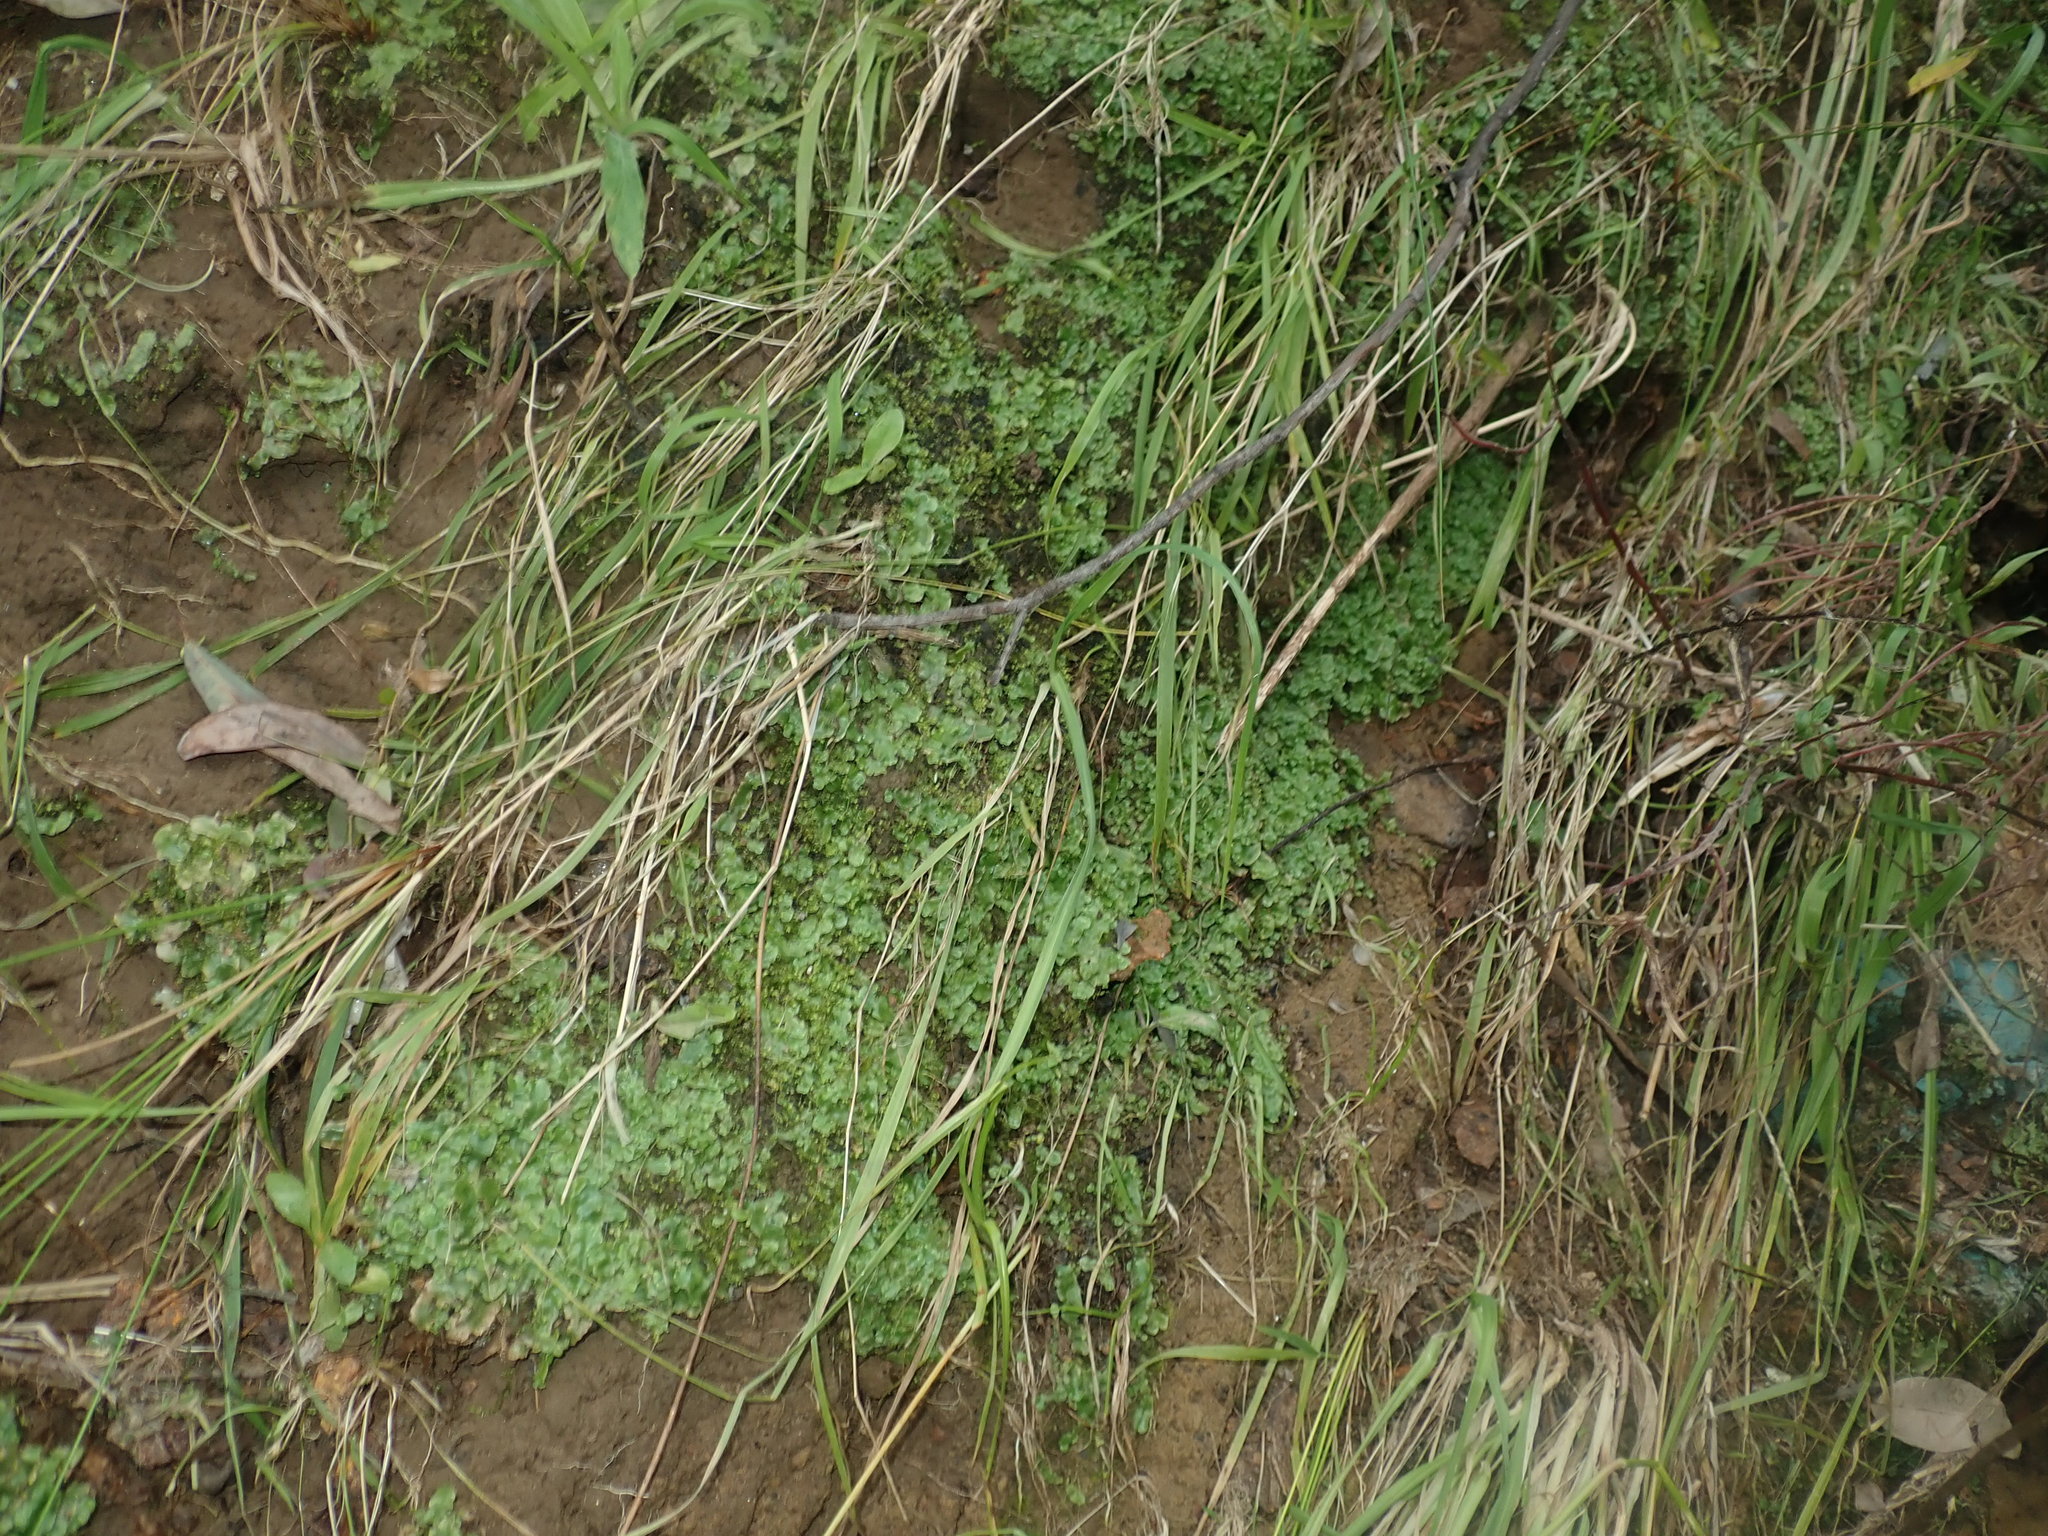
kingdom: Plantae
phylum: Marchantiophyta
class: Marchantiopsida
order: Lunulariales
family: Lunulariaceae
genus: Lunularia
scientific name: Lunularia cruciata
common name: Crescent-cup liverwort
